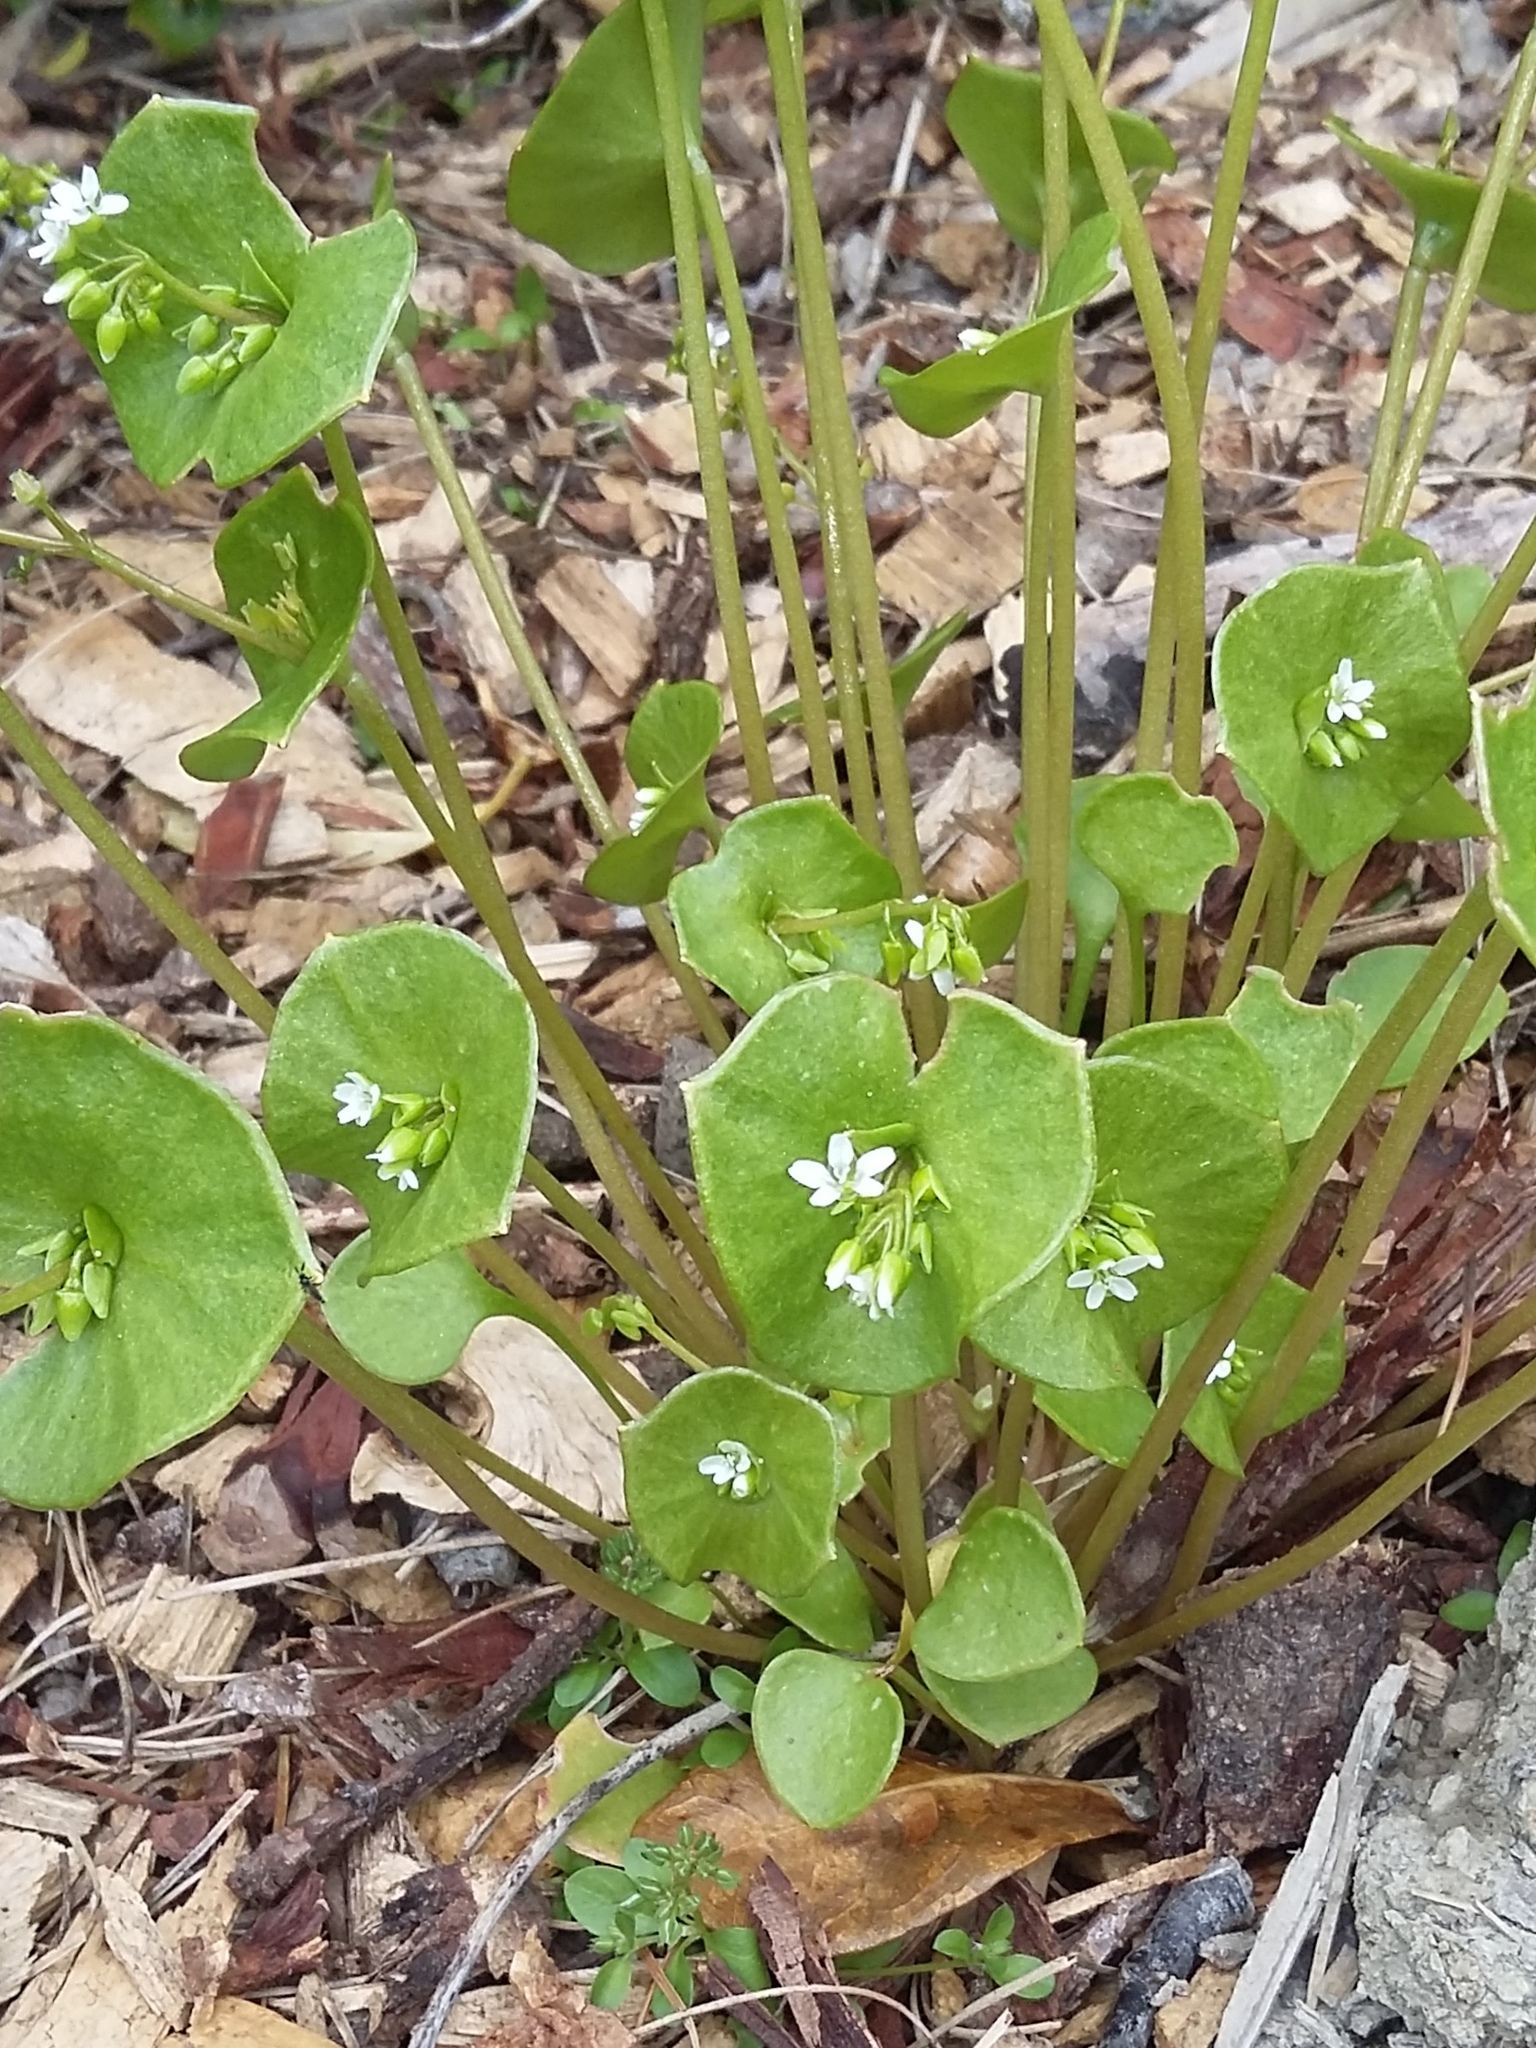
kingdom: Plantae
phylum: Tracheophyta
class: Magnoliopsida
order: Caryophyllales
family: Montiaceae
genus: Claytonia
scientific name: Claytonia perfoliata
